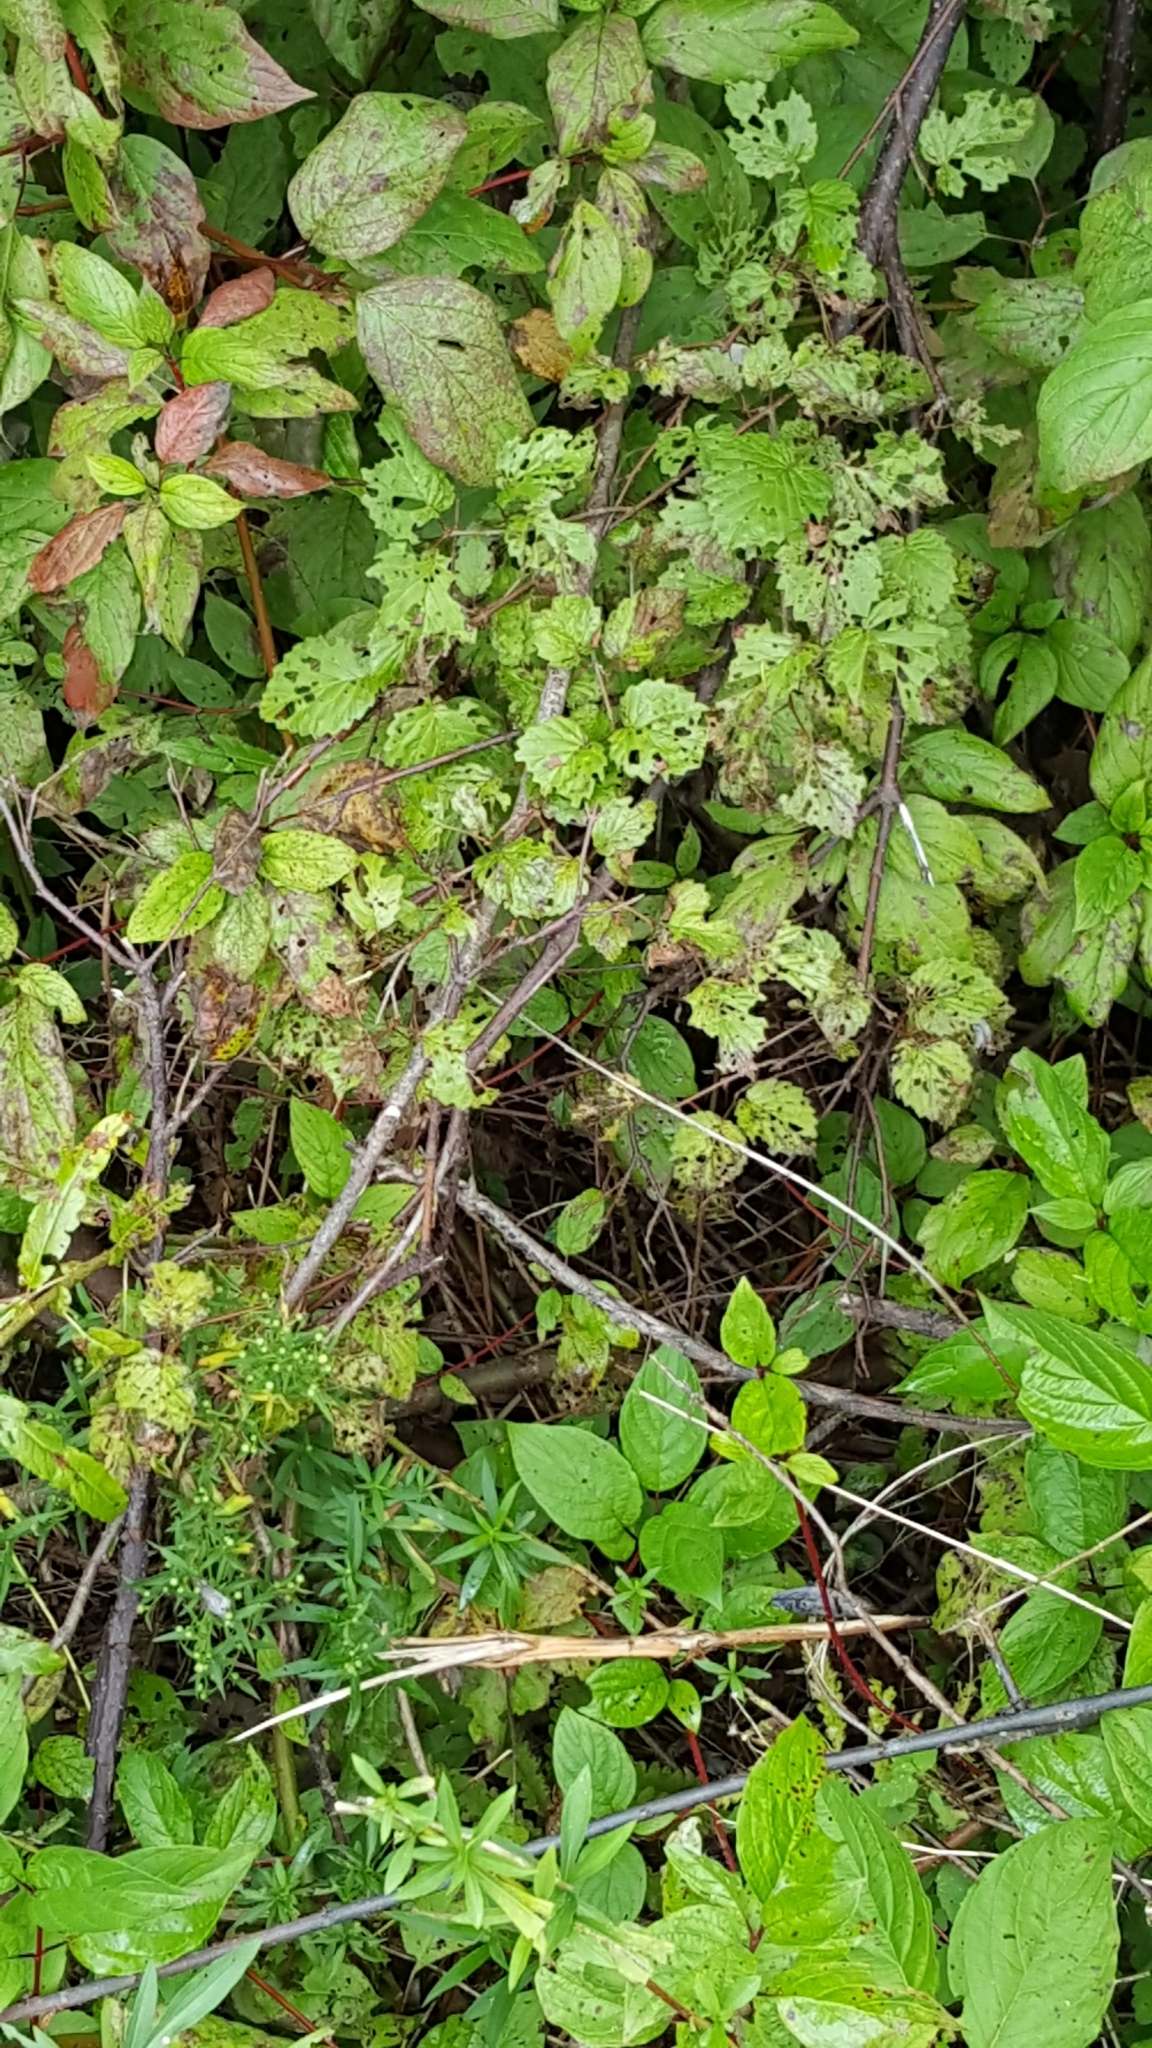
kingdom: Plantae
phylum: Tracheophyta
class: Magnoliopsida
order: Dipsacales
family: Viburnaceae
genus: Viburnum
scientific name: Viburnum dentatum
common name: Arrow-wood
